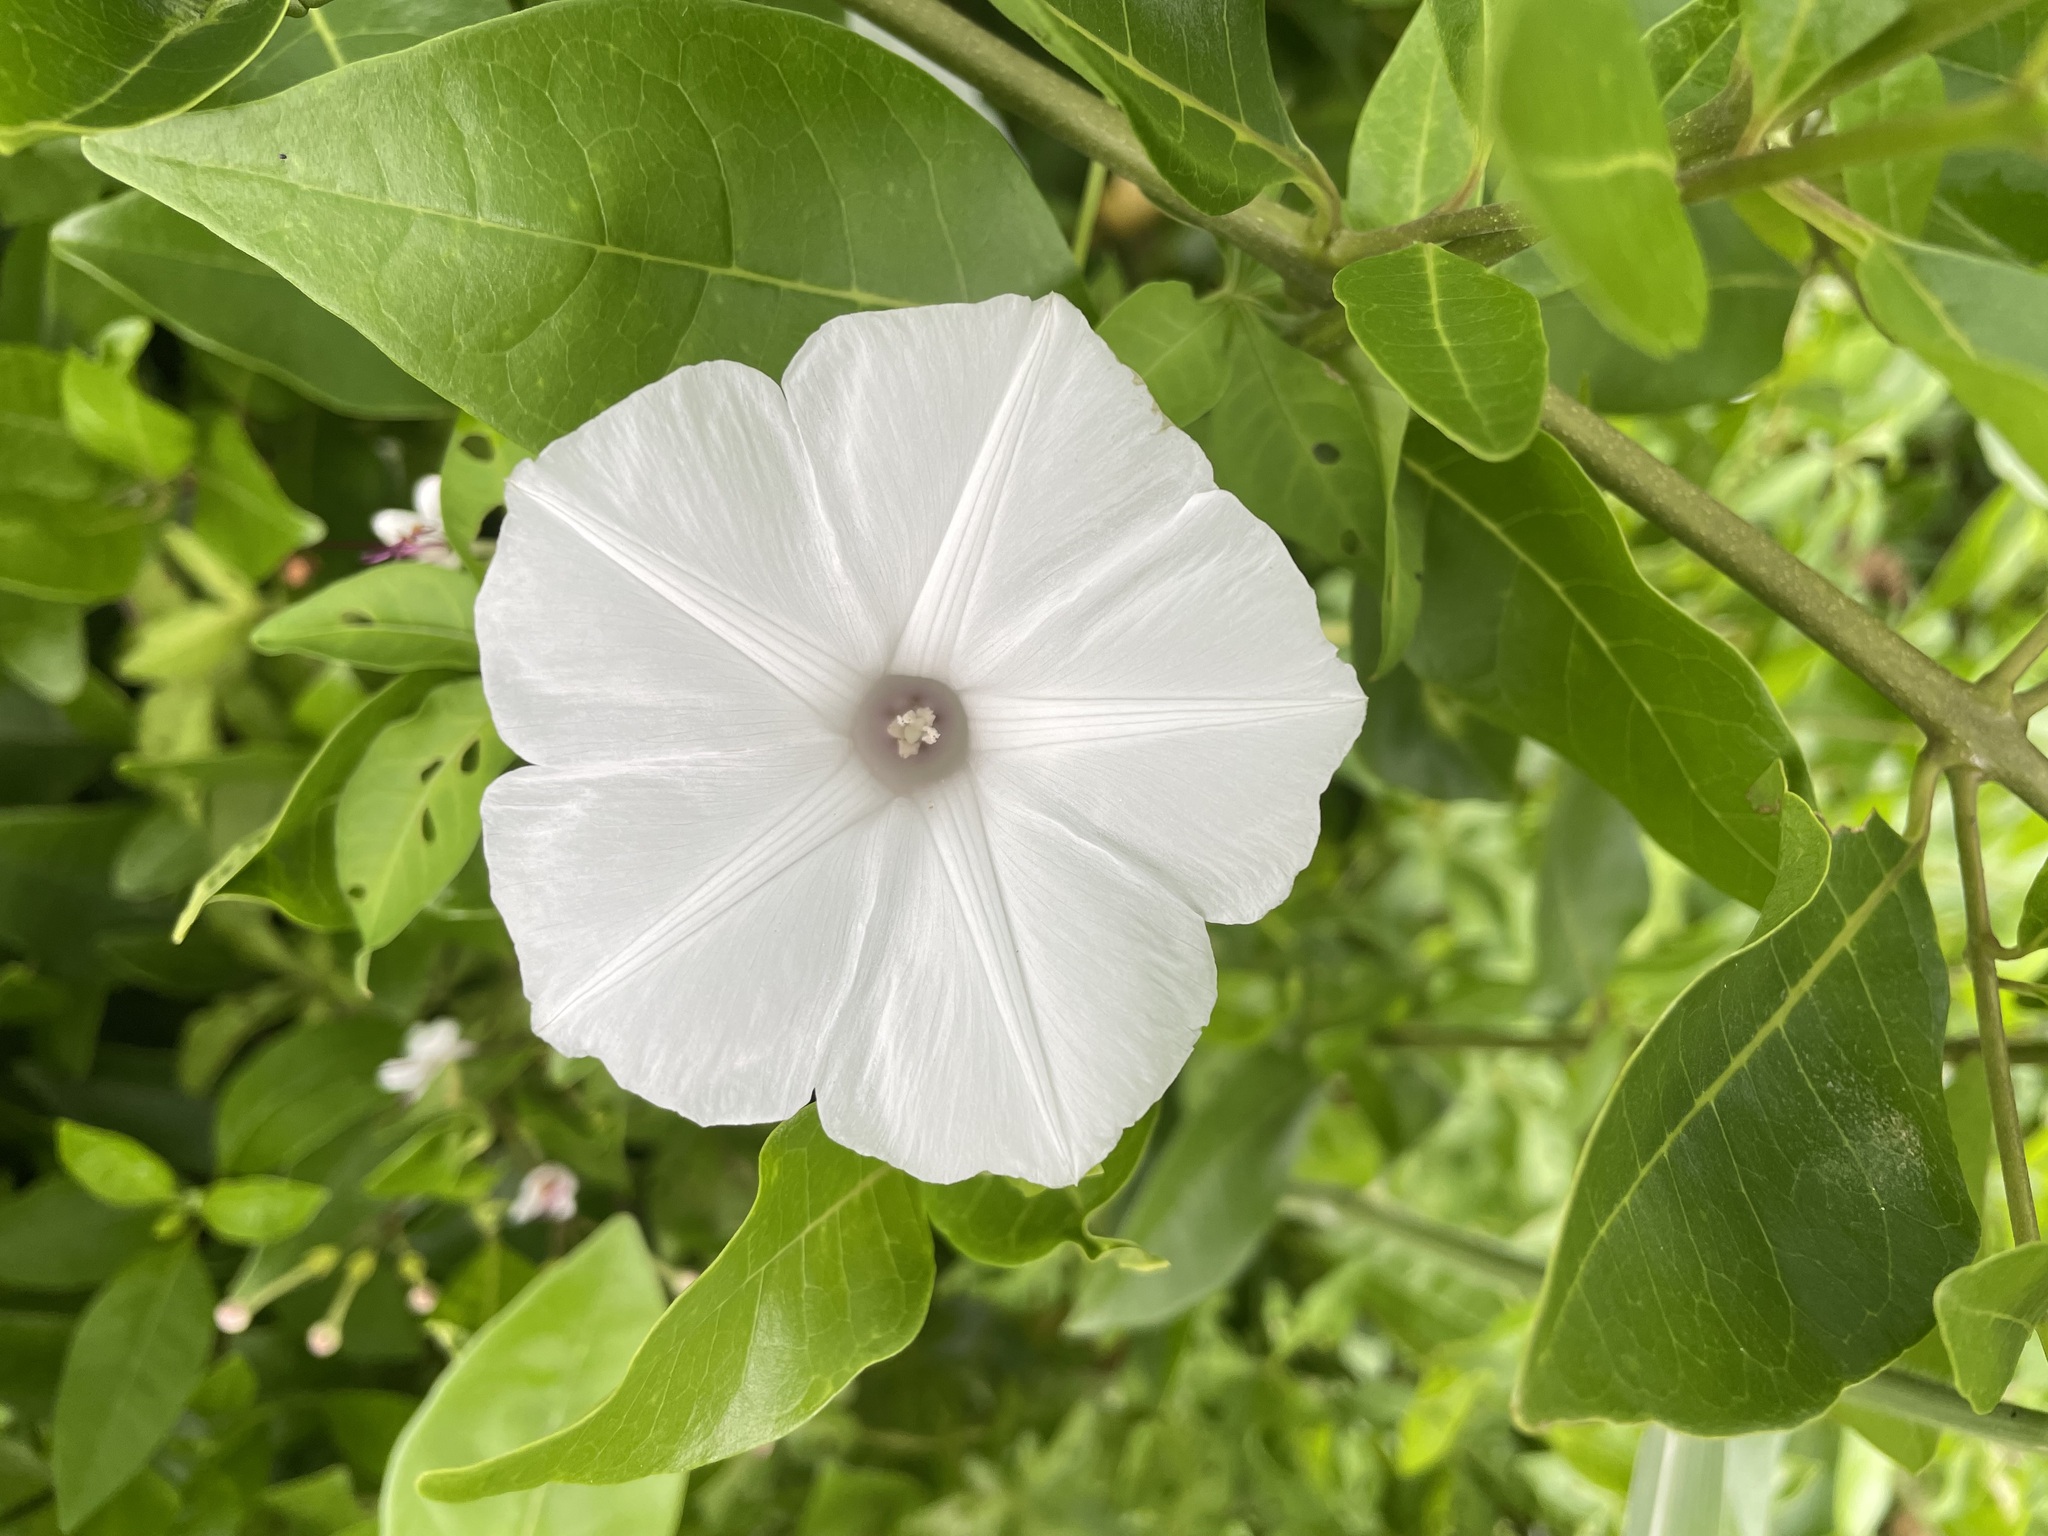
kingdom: Plantae
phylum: Tracheophyta
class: Magnoliopsida
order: Solanales
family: Convolvulaceae
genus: Ipomoea
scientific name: Ipomoea cairica
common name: Mile a minute vine
